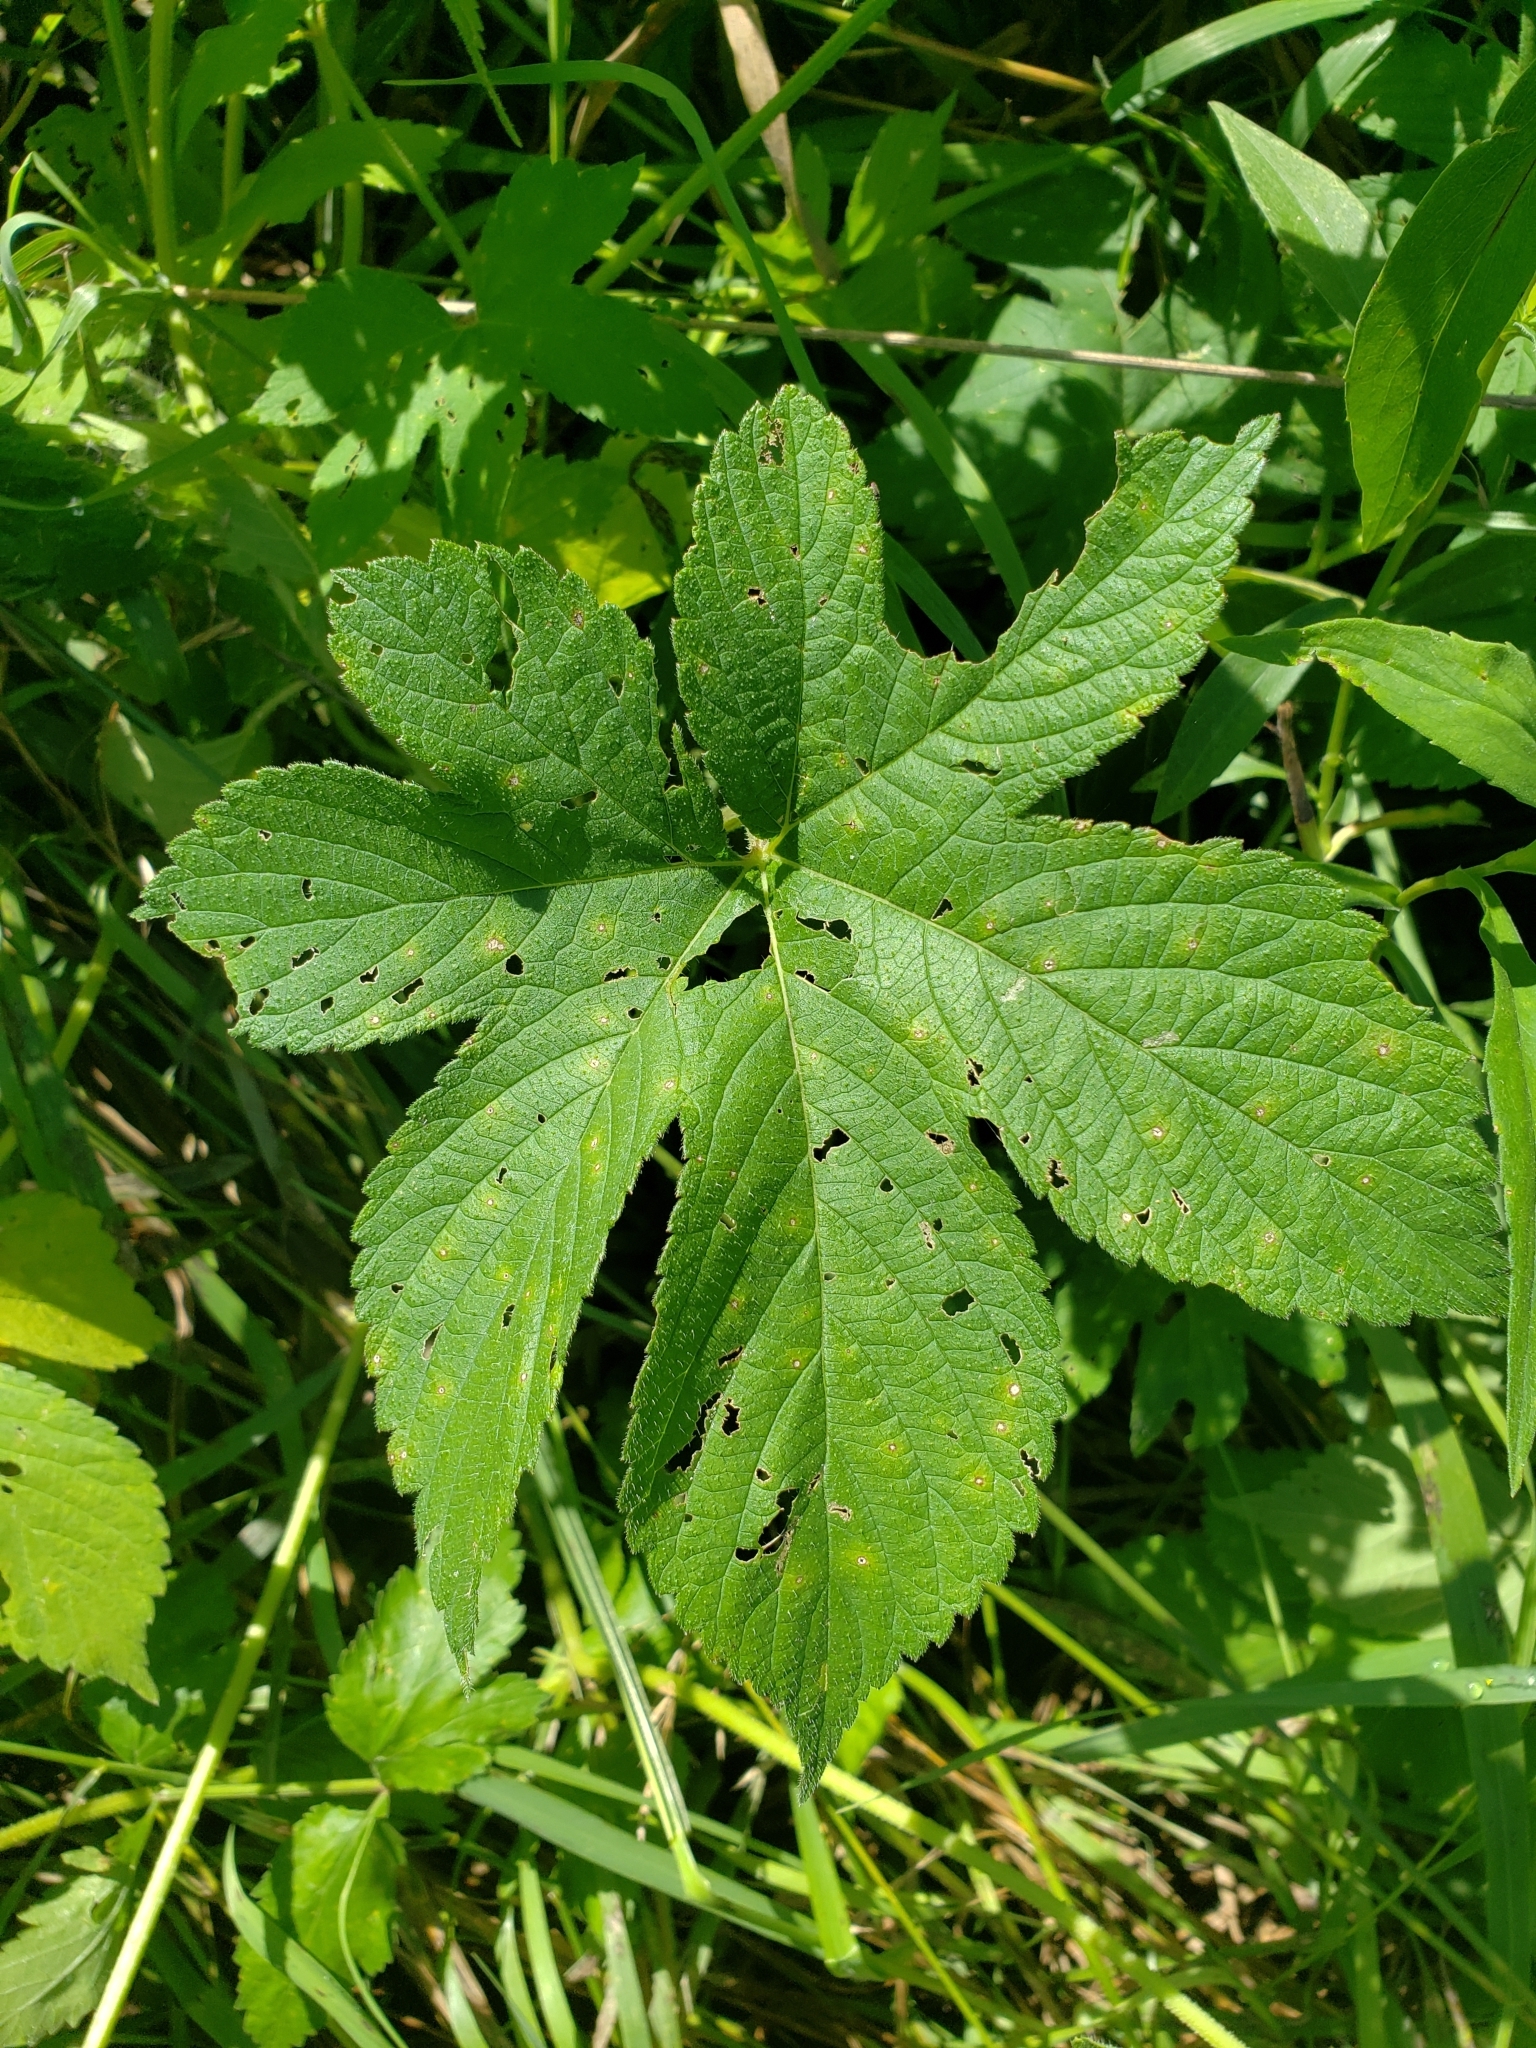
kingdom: Plantae
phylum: Tracheophyta
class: Magnoliopsida
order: Rosales
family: Cannabaceae
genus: Humulus
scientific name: Humulus scandens
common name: Japanese hop
